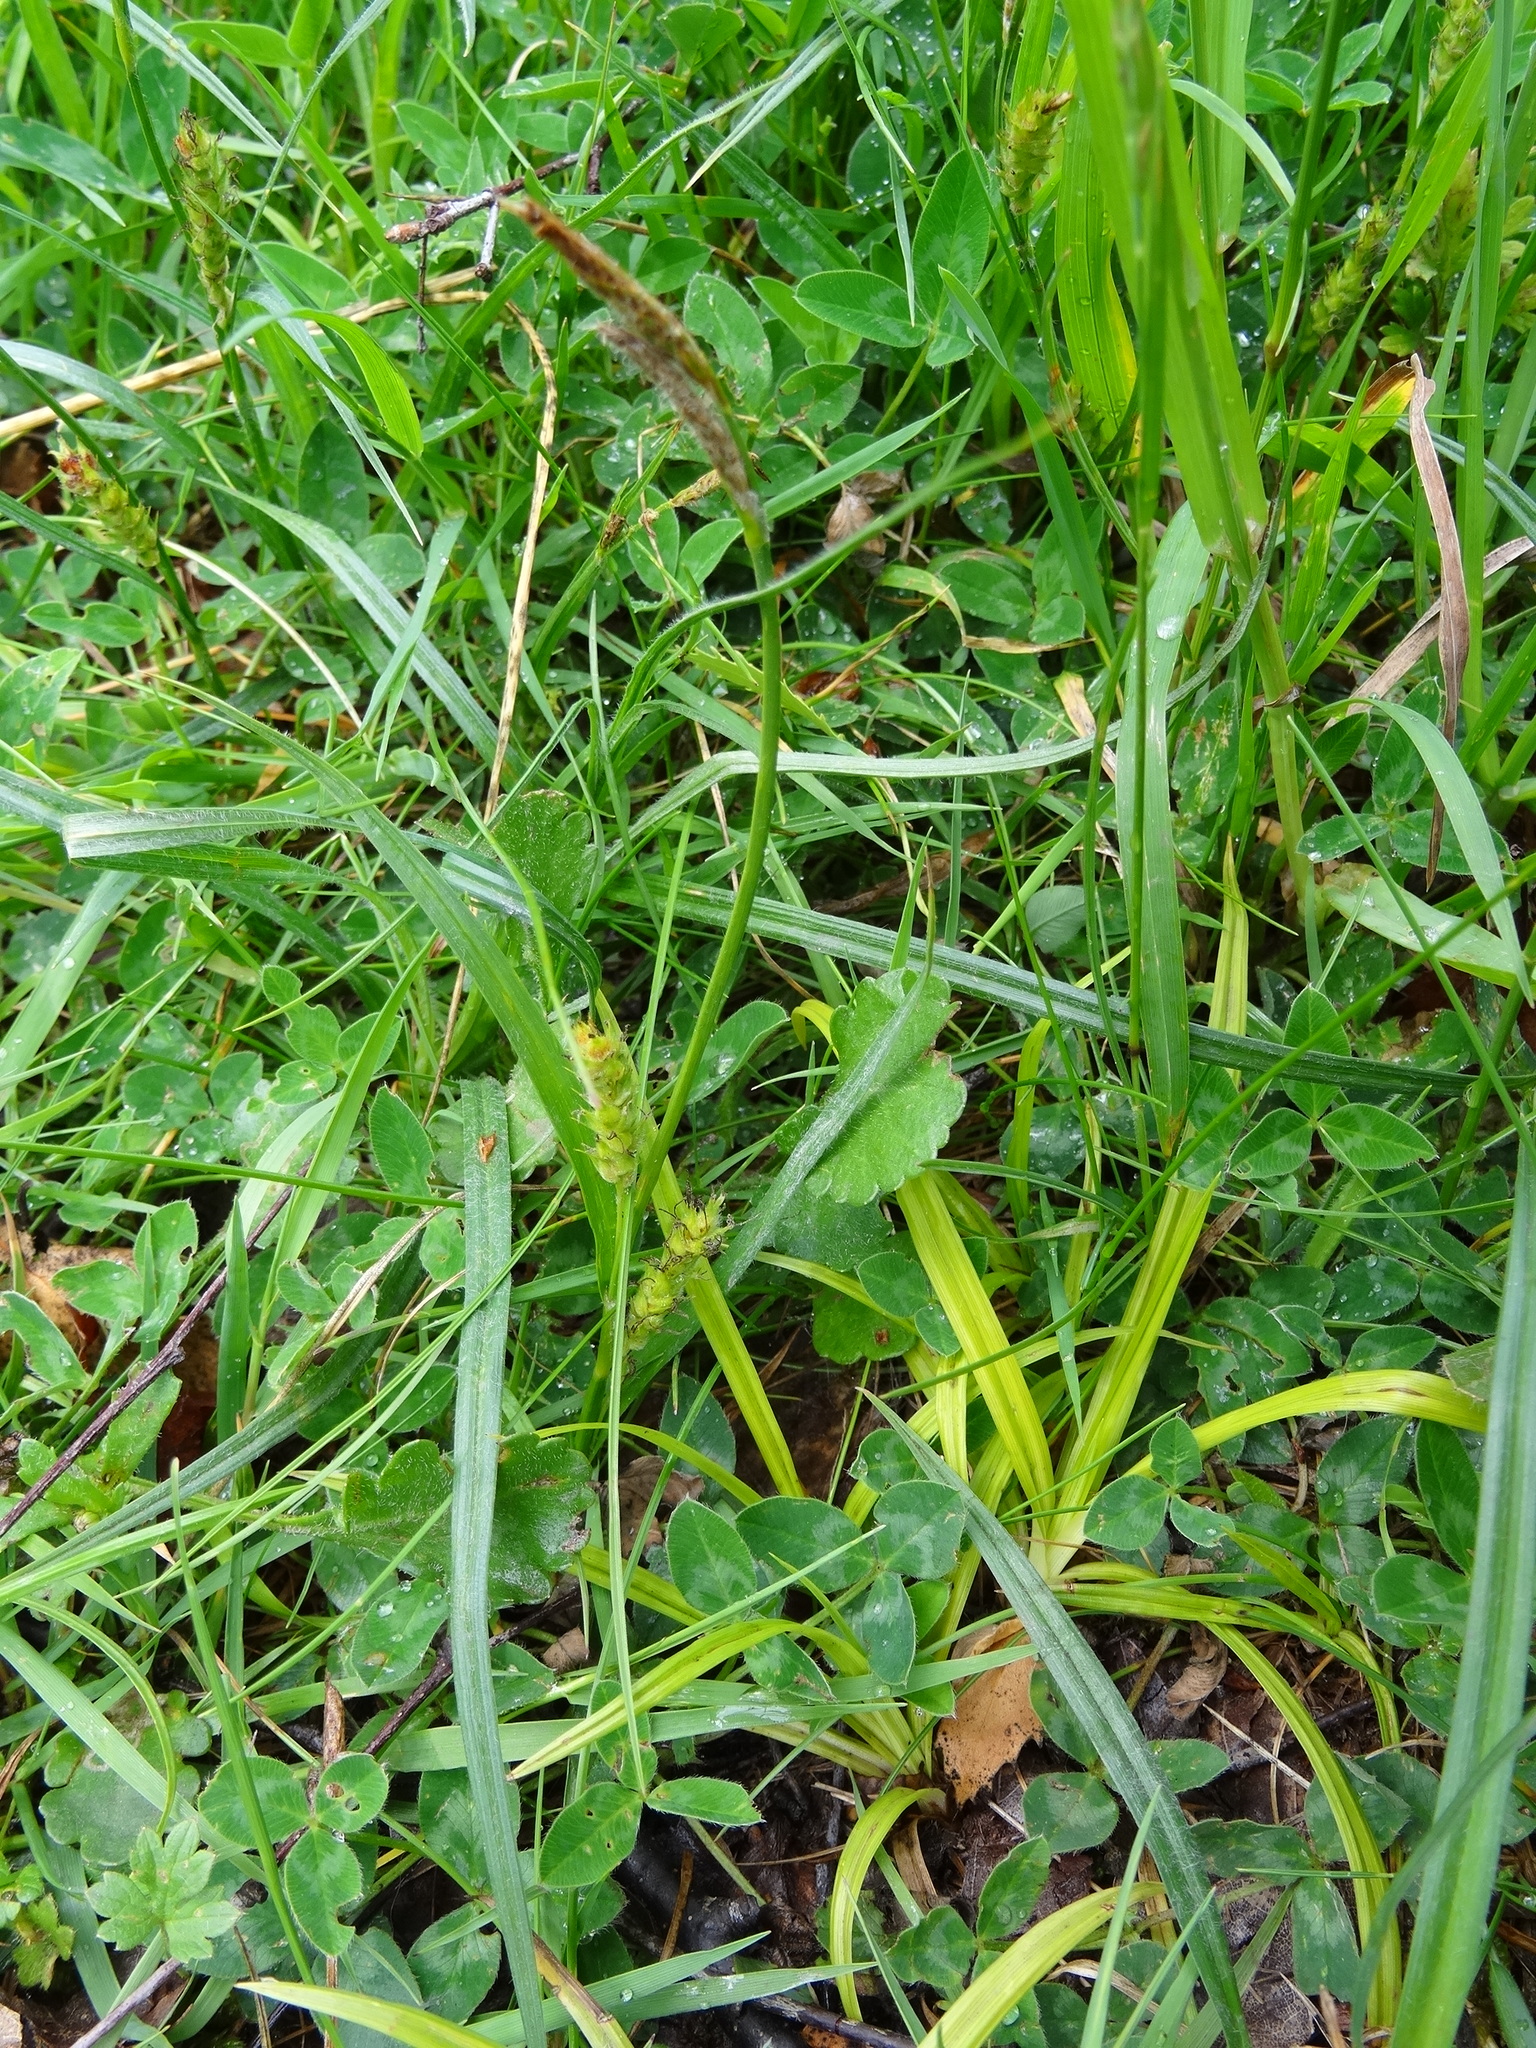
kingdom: Plantae
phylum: Tracheophyta
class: Liliopsida
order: Poales
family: Cyperaceae
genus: Carex
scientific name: Carex hirta
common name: Hairy sedge
